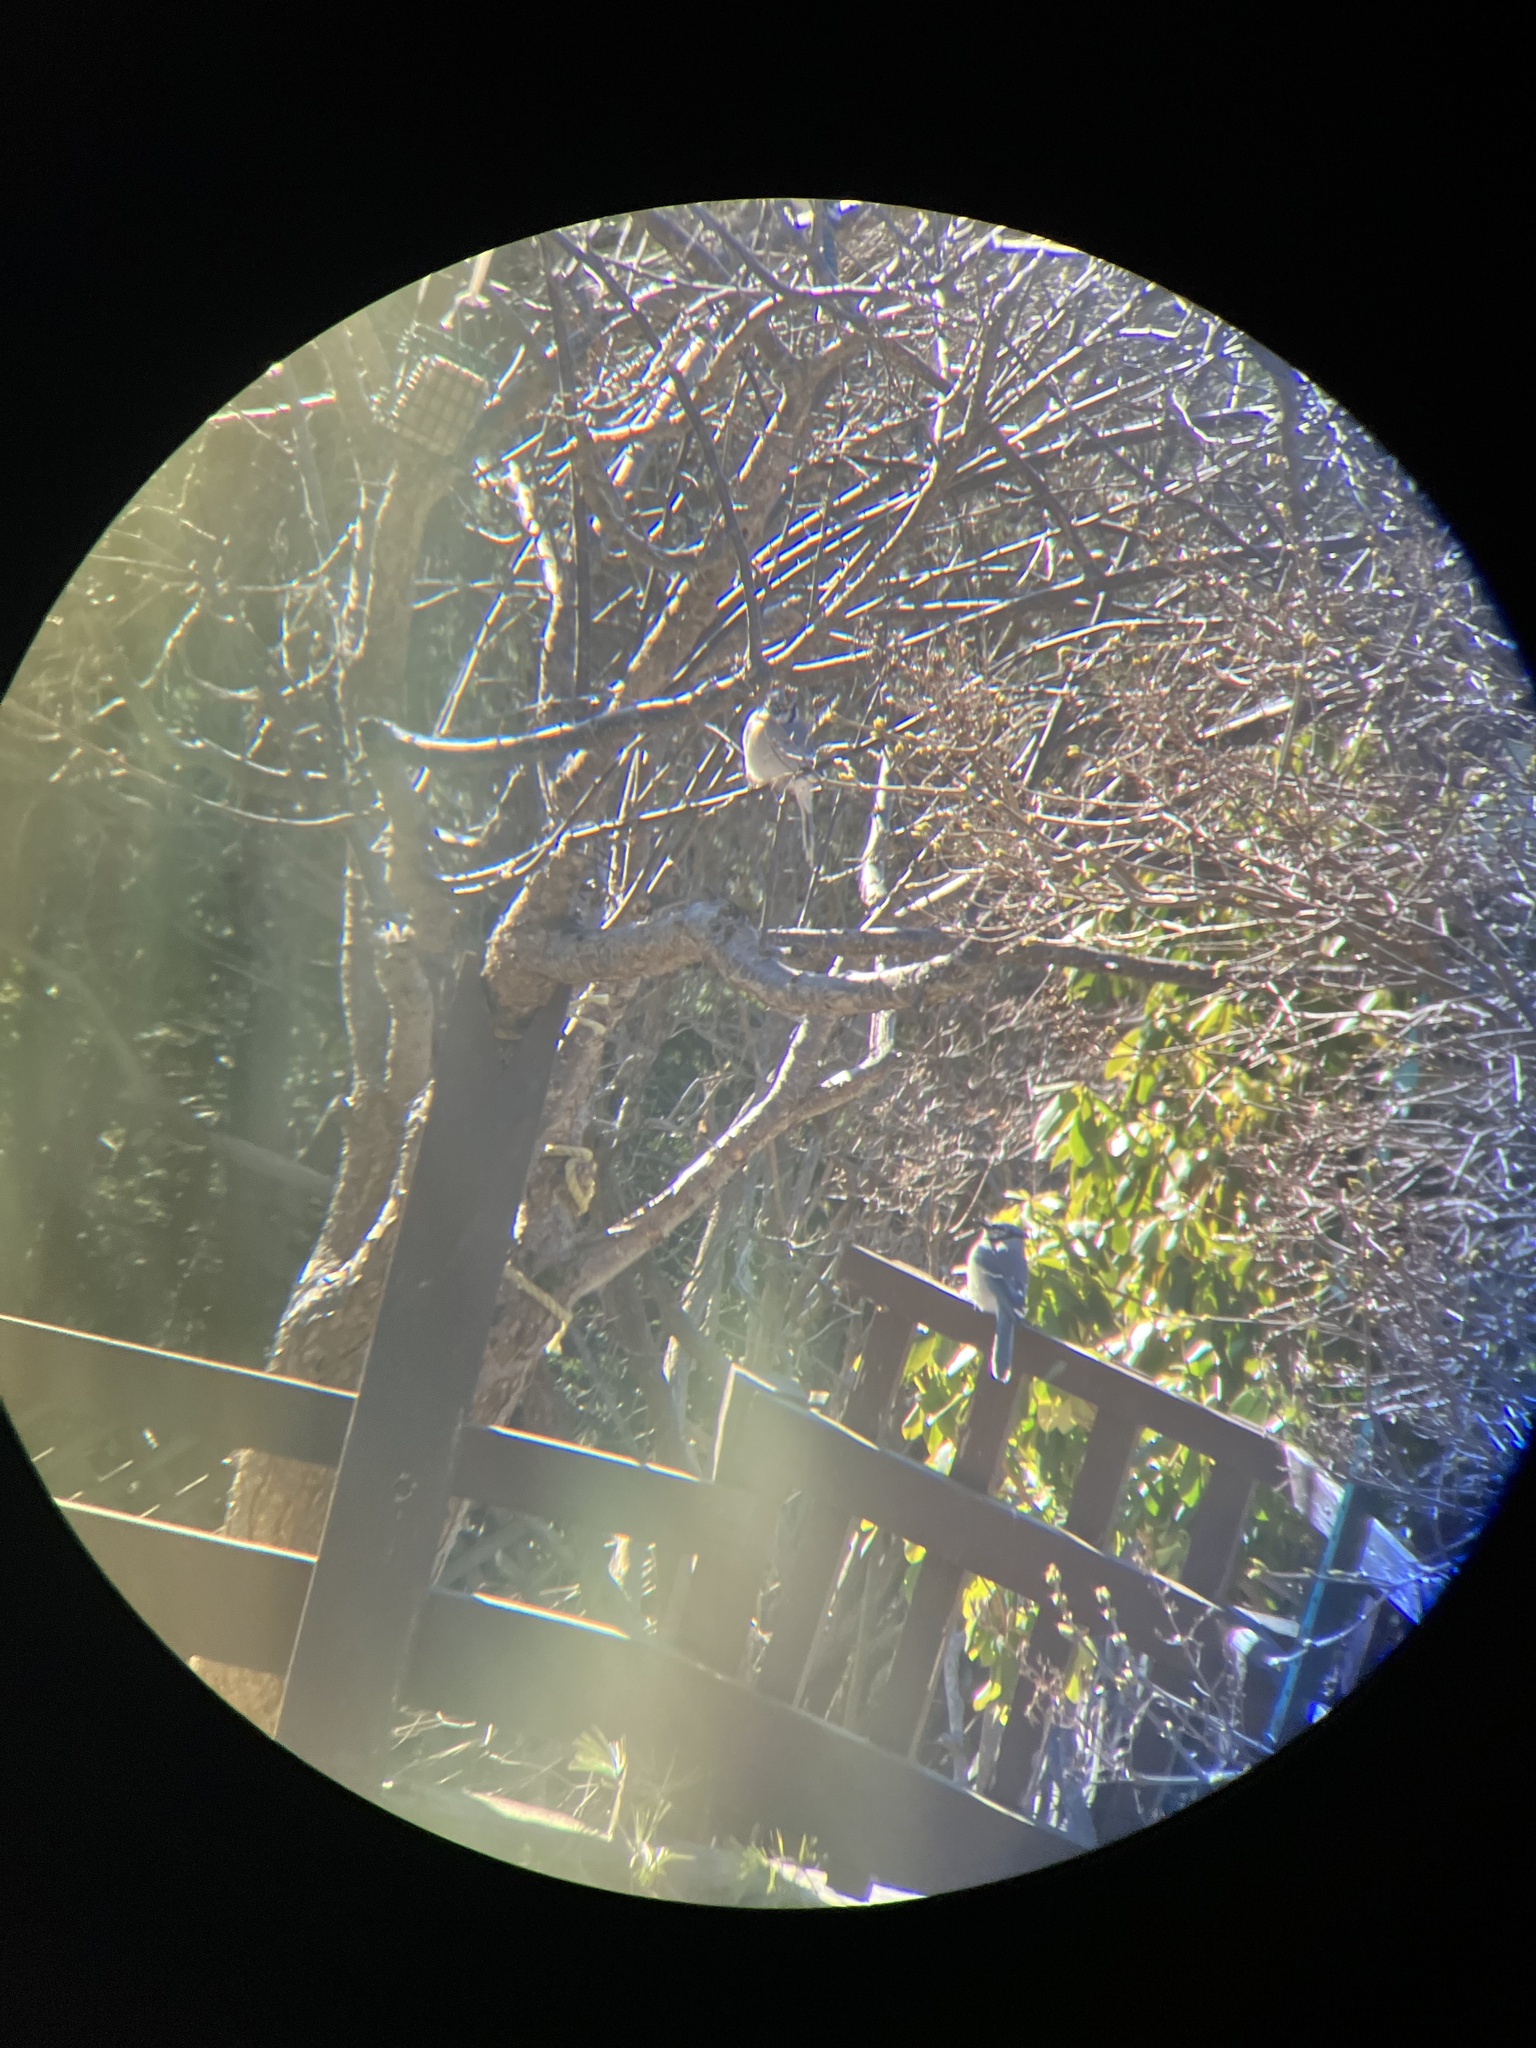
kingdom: Animalia
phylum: Chordata
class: Aves
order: Passeriformes
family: Corvidae
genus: Cyanocitta
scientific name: Cyanocitta cristata
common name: Blue jay
